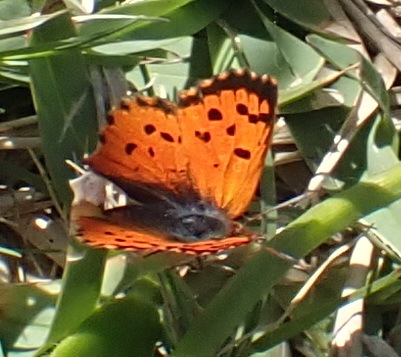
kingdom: Animalia
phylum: Arthropoda
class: Insecta
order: Lepidoptera
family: Lycaenidae
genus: Chrysoritis
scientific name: Chrysoritis
